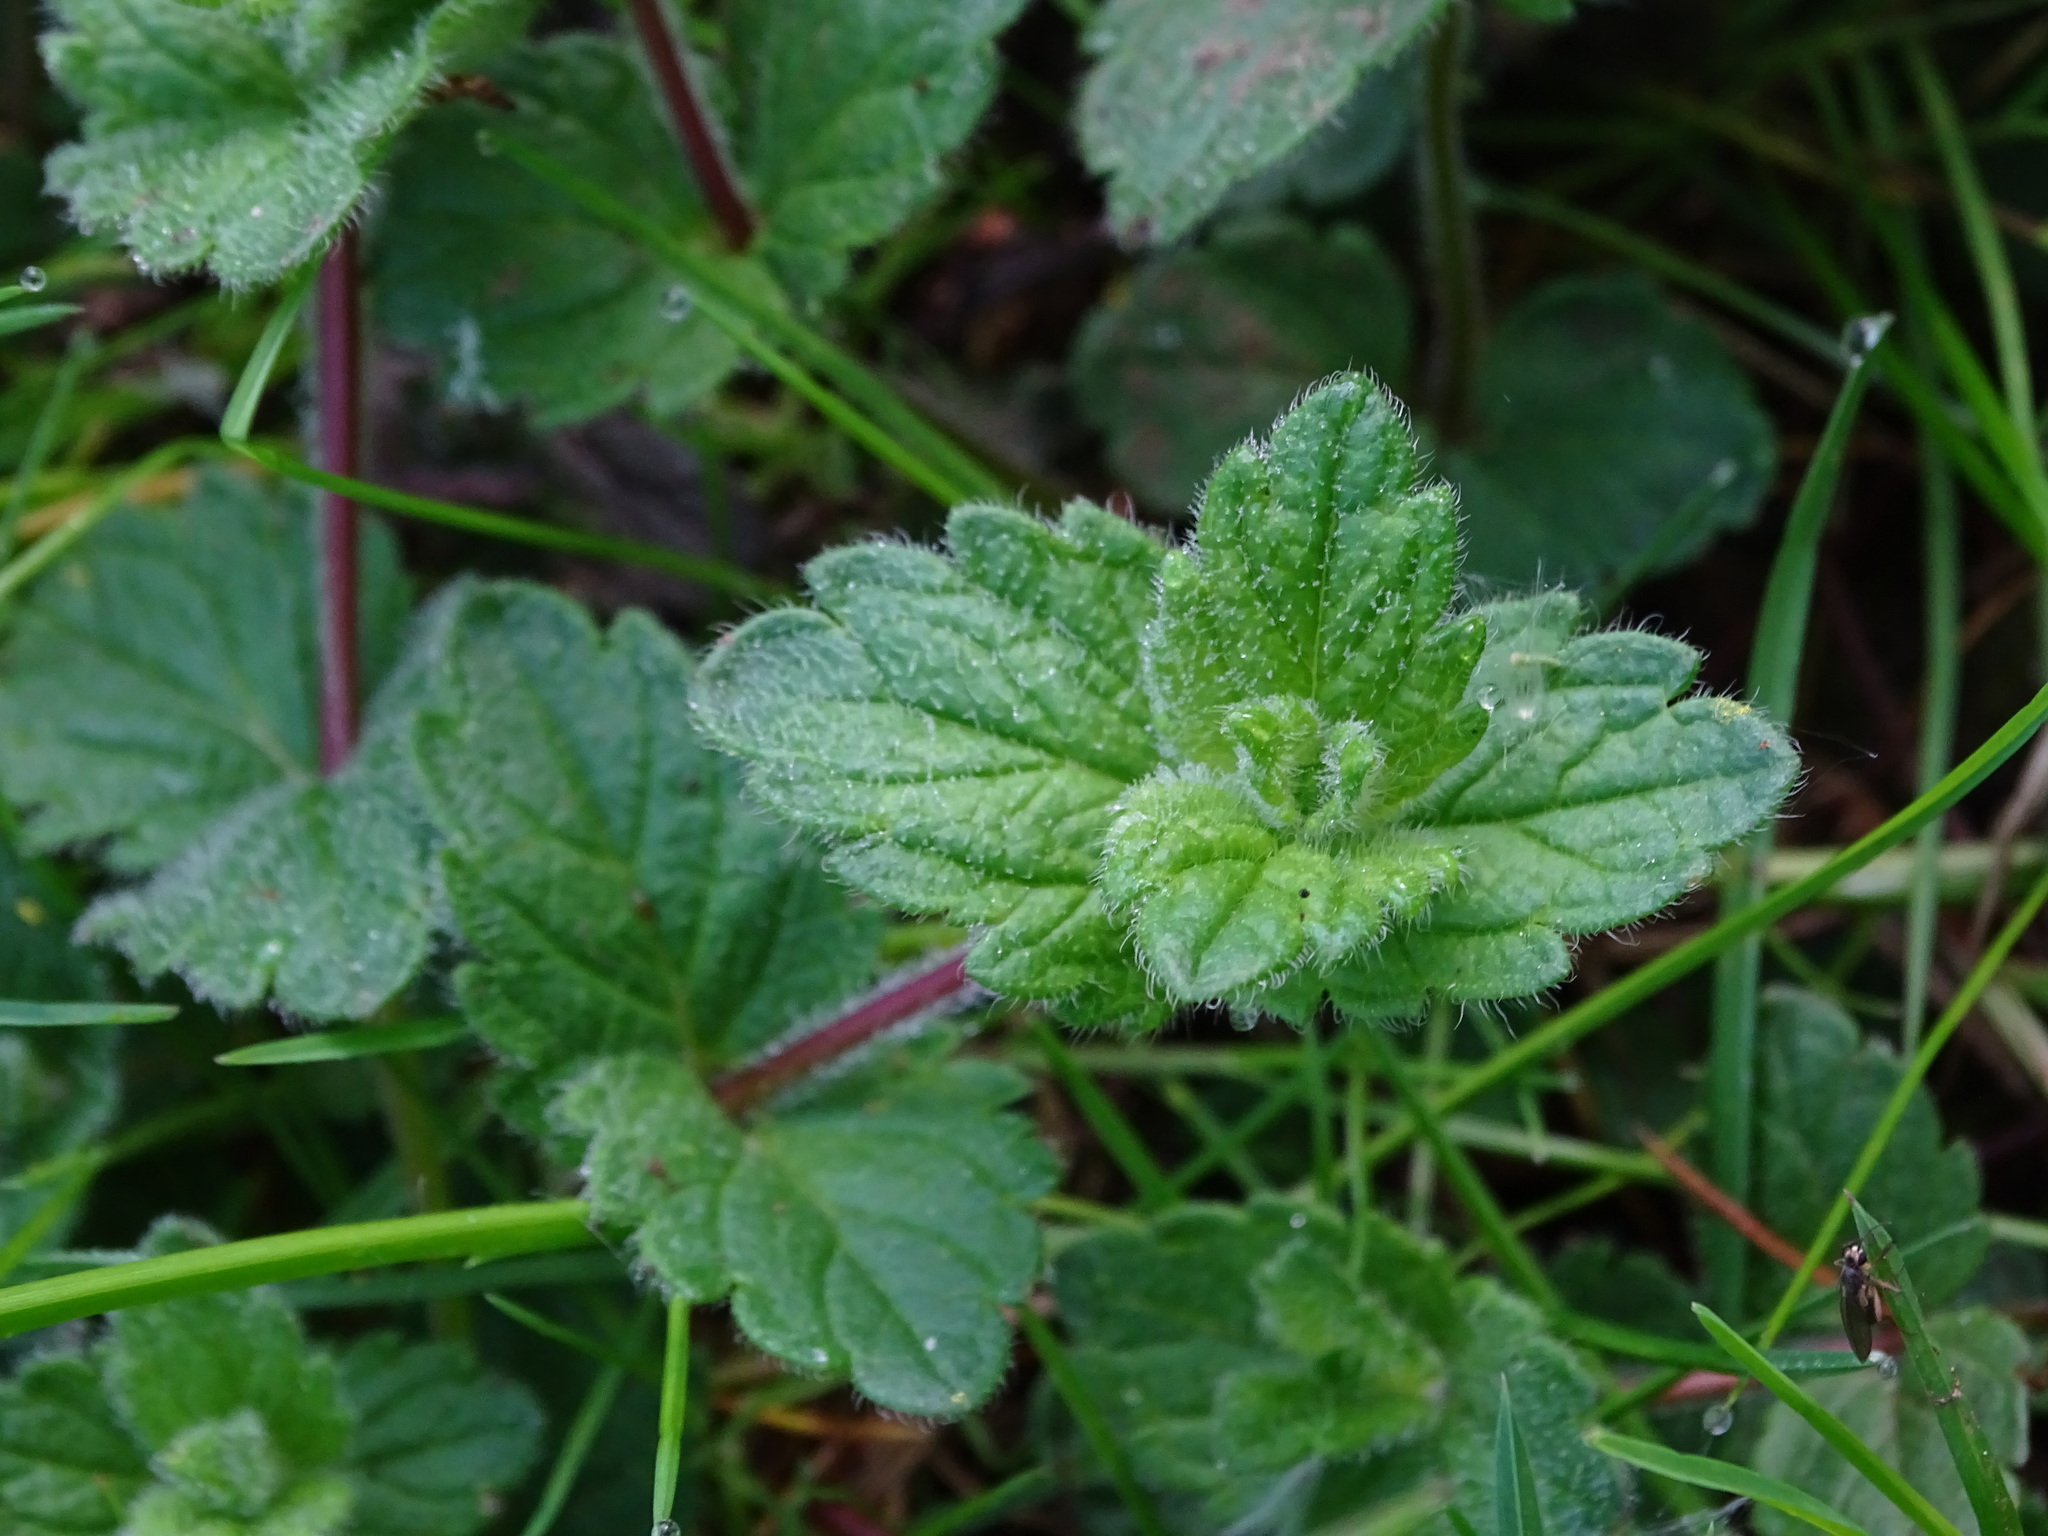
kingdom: Plantae
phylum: Tracheophyta
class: Magnoliopsida
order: Lamiales
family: Plantaginaceae
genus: Veronica
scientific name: Veronica chamaedrys
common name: Germander speedwell
